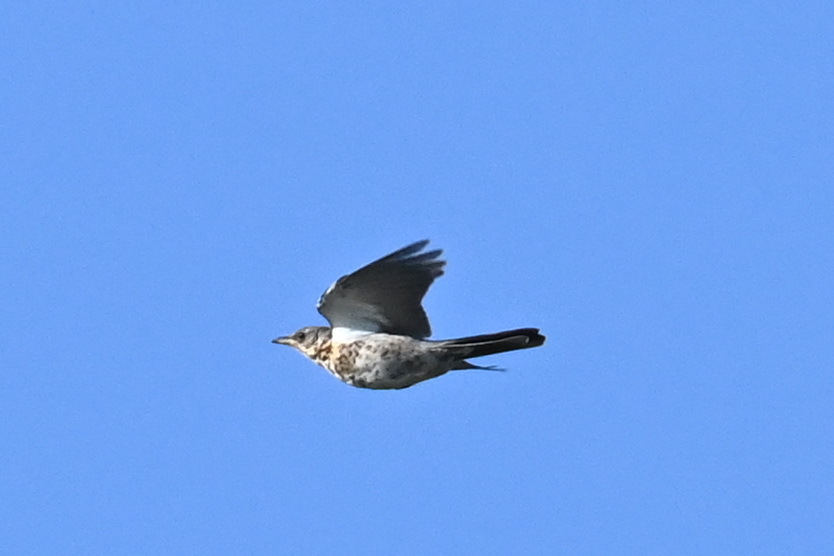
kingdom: Animalia
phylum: Chordata
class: Aves
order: Passeriformes
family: Turdidae
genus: Turdus
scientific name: Turdus pilaris
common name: Fieldfare
